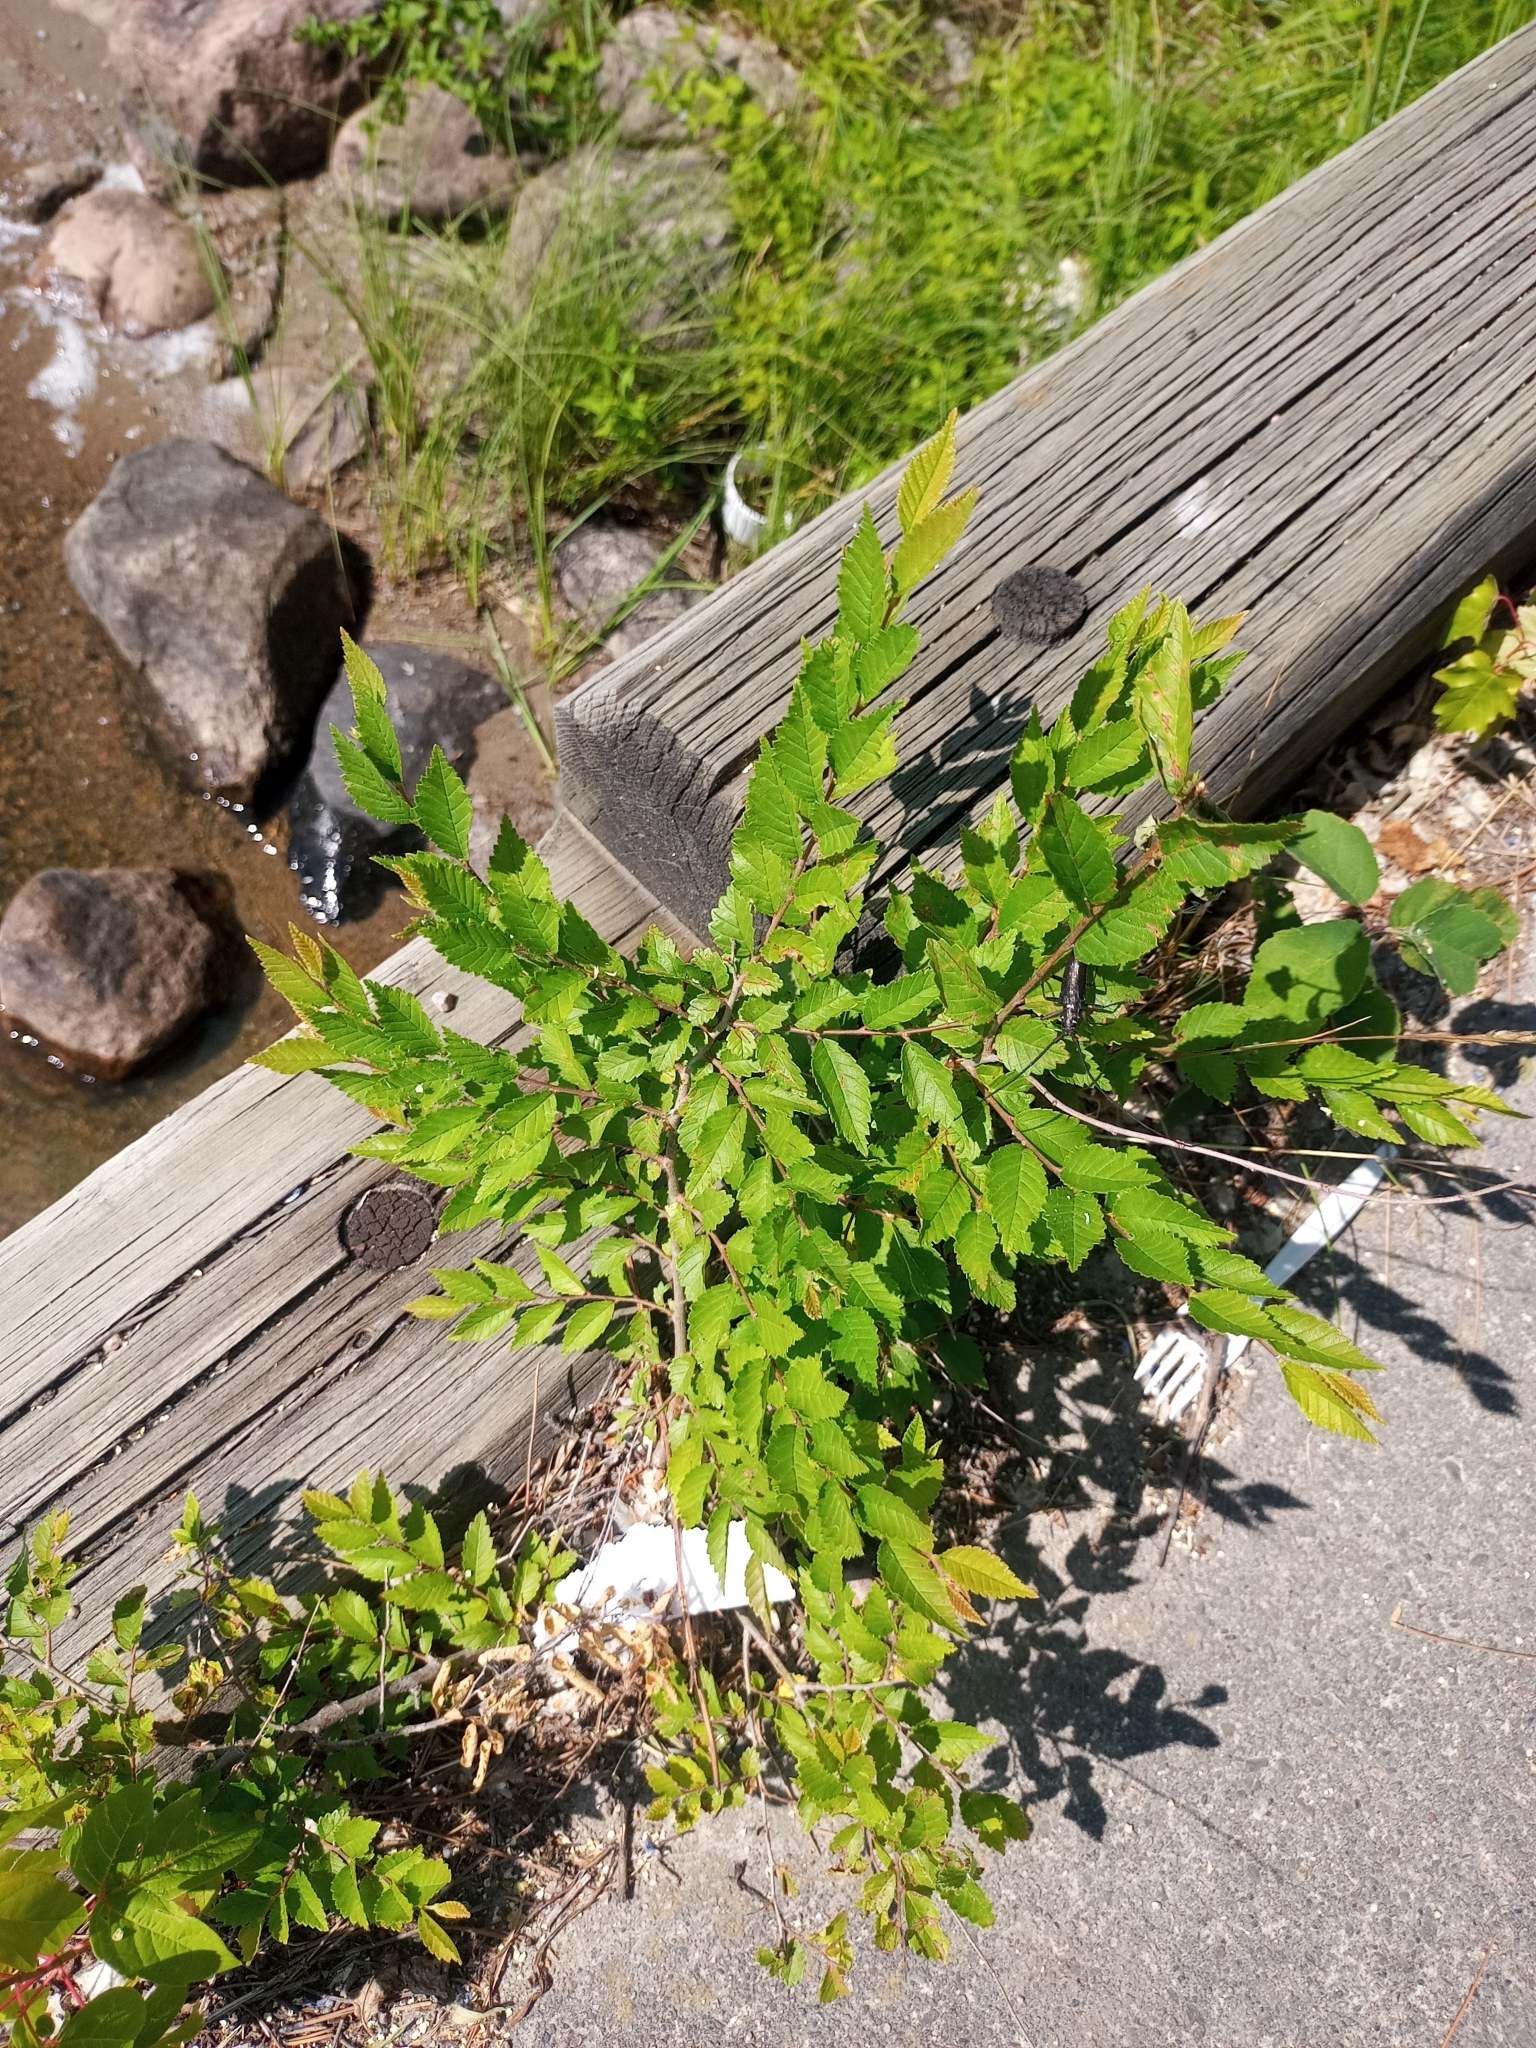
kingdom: Plantae
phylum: Tracheophyta
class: Magnoliopsida
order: Rosales
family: Ulmaceae
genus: Ulmus
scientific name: Ulmus pumila
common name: Siberian elm
